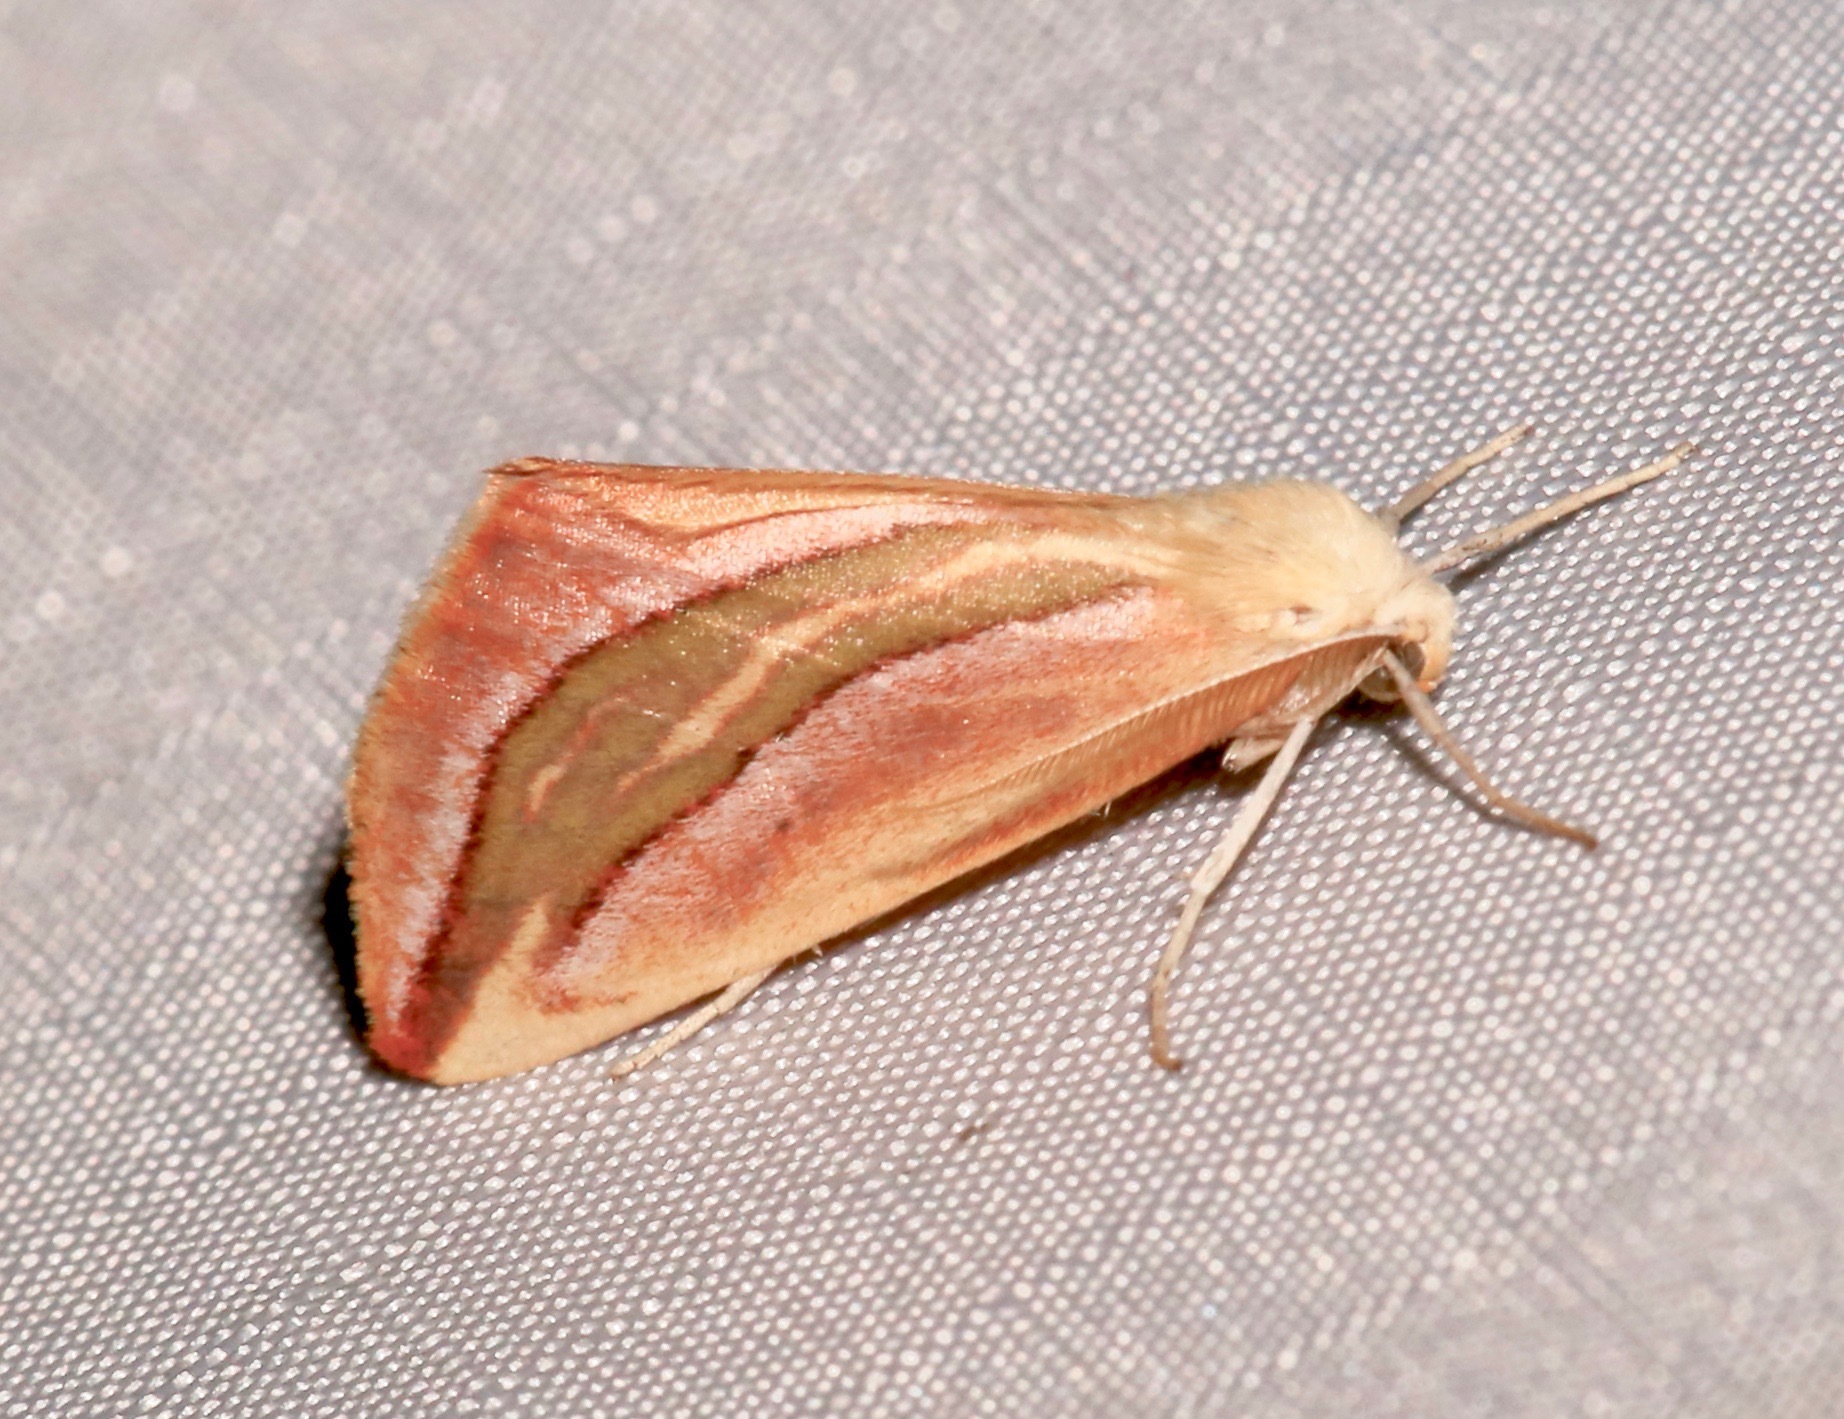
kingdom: Animalia
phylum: Arthropoda
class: Insecta
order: Lepidoptera
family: Geometridae
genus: Melemaea
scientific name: Melemaea magdalena
